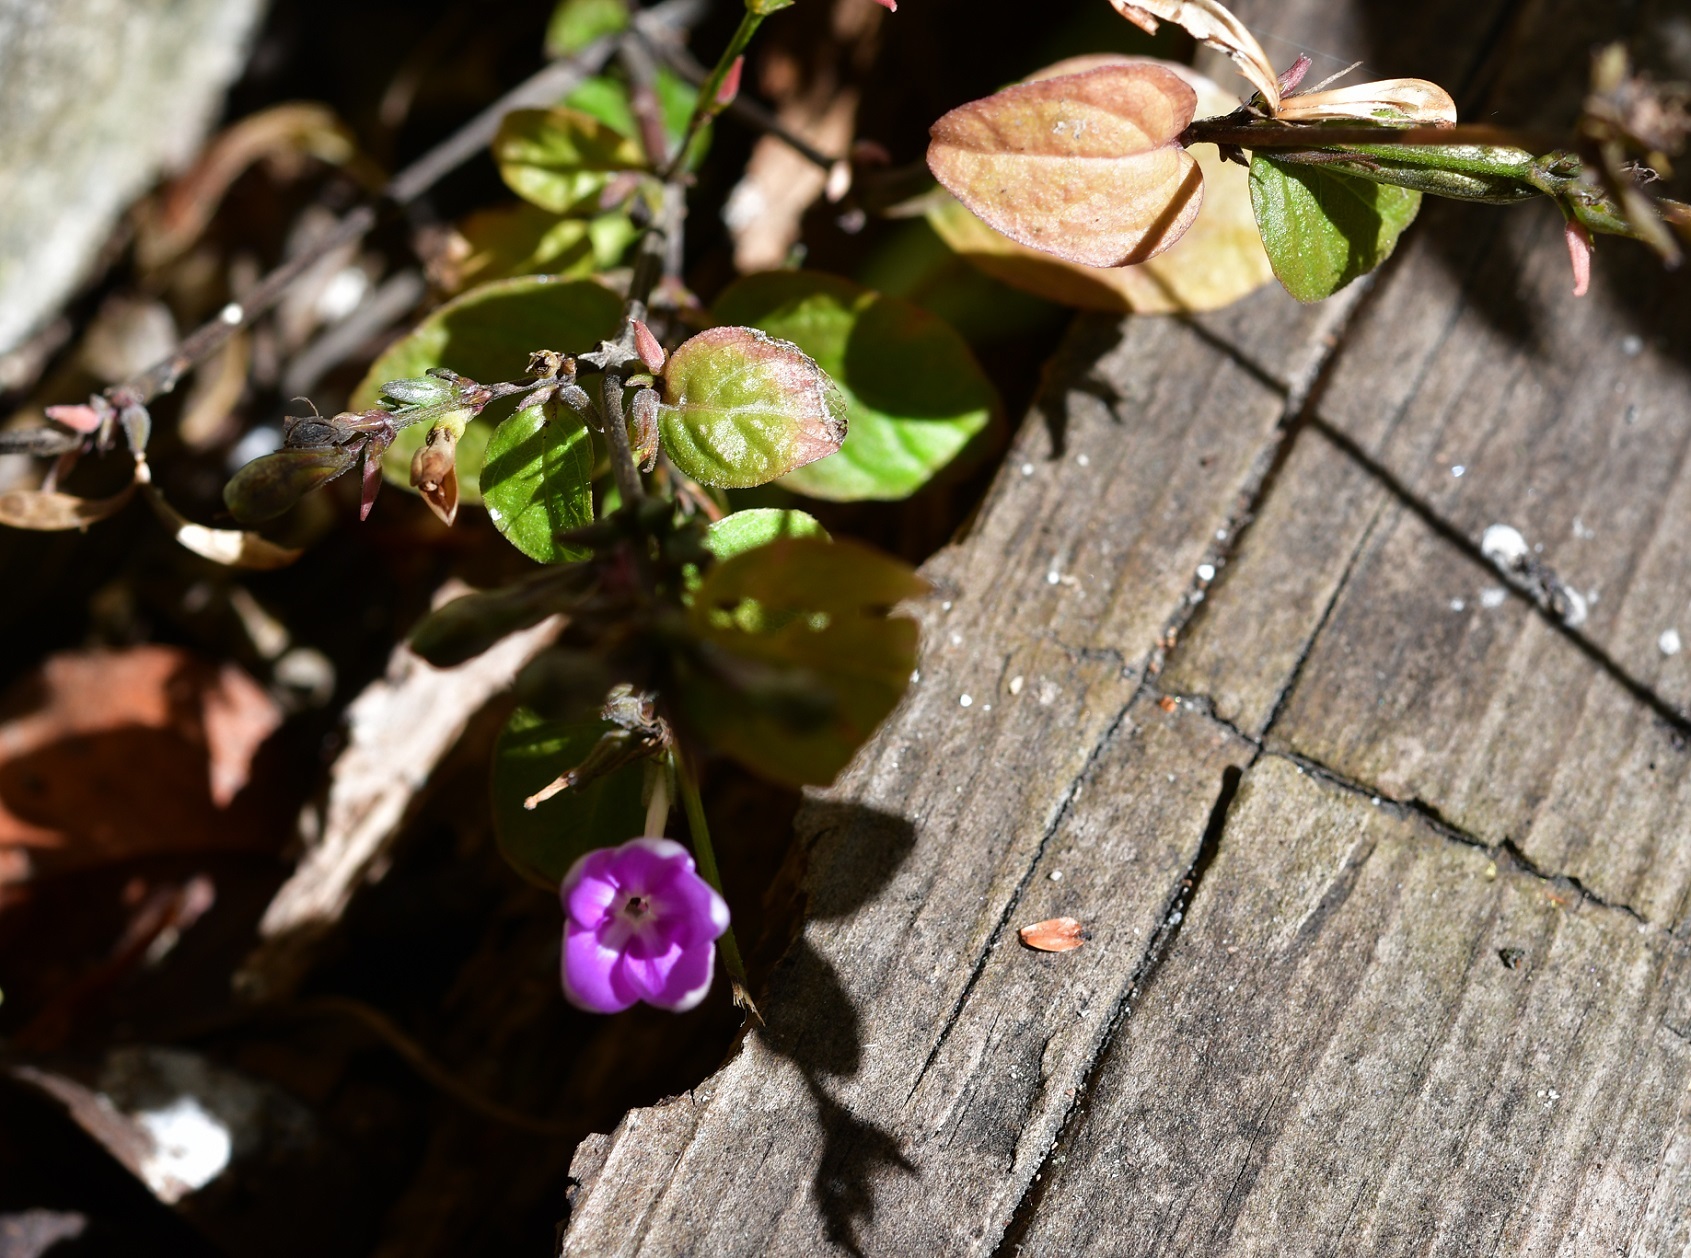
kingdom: Plantae
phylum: Tracheophyta
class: Magnoliopsida
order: Lamiales
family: Acanthaceae
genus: Pseuderanthemum
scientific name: Pseuderanthemum alatum
